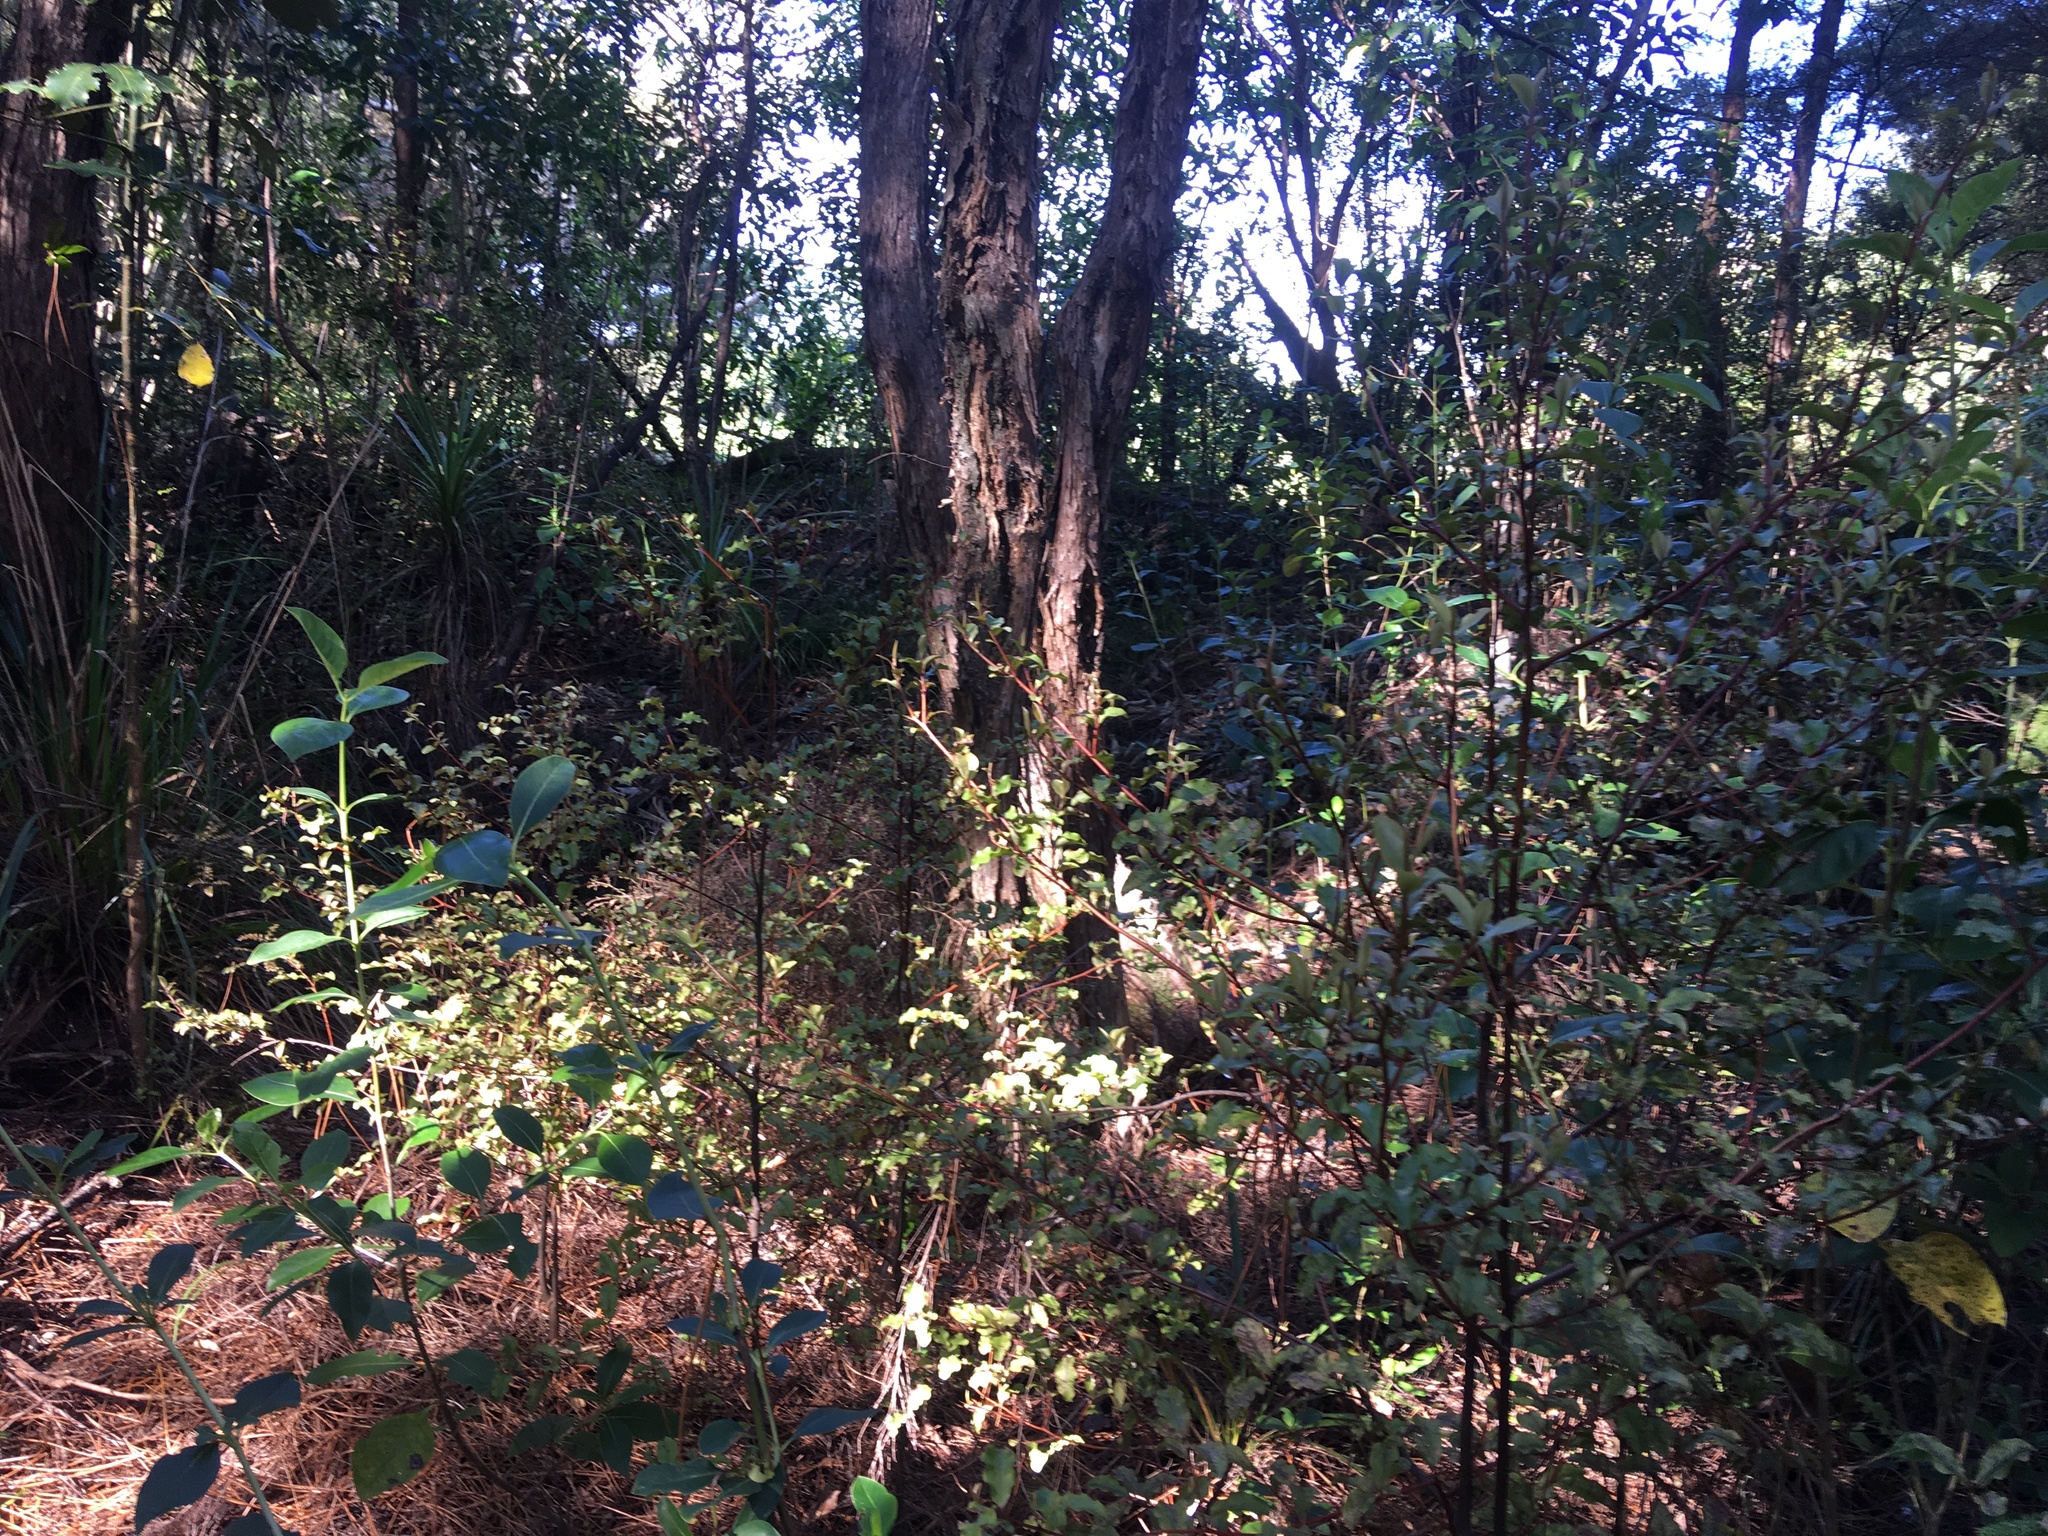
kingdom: Plantae
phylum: Tracheophyta
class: Magnoliopsida
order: Ericales
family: Primulaceae
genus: Myrsine
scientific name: Myrsine australis
